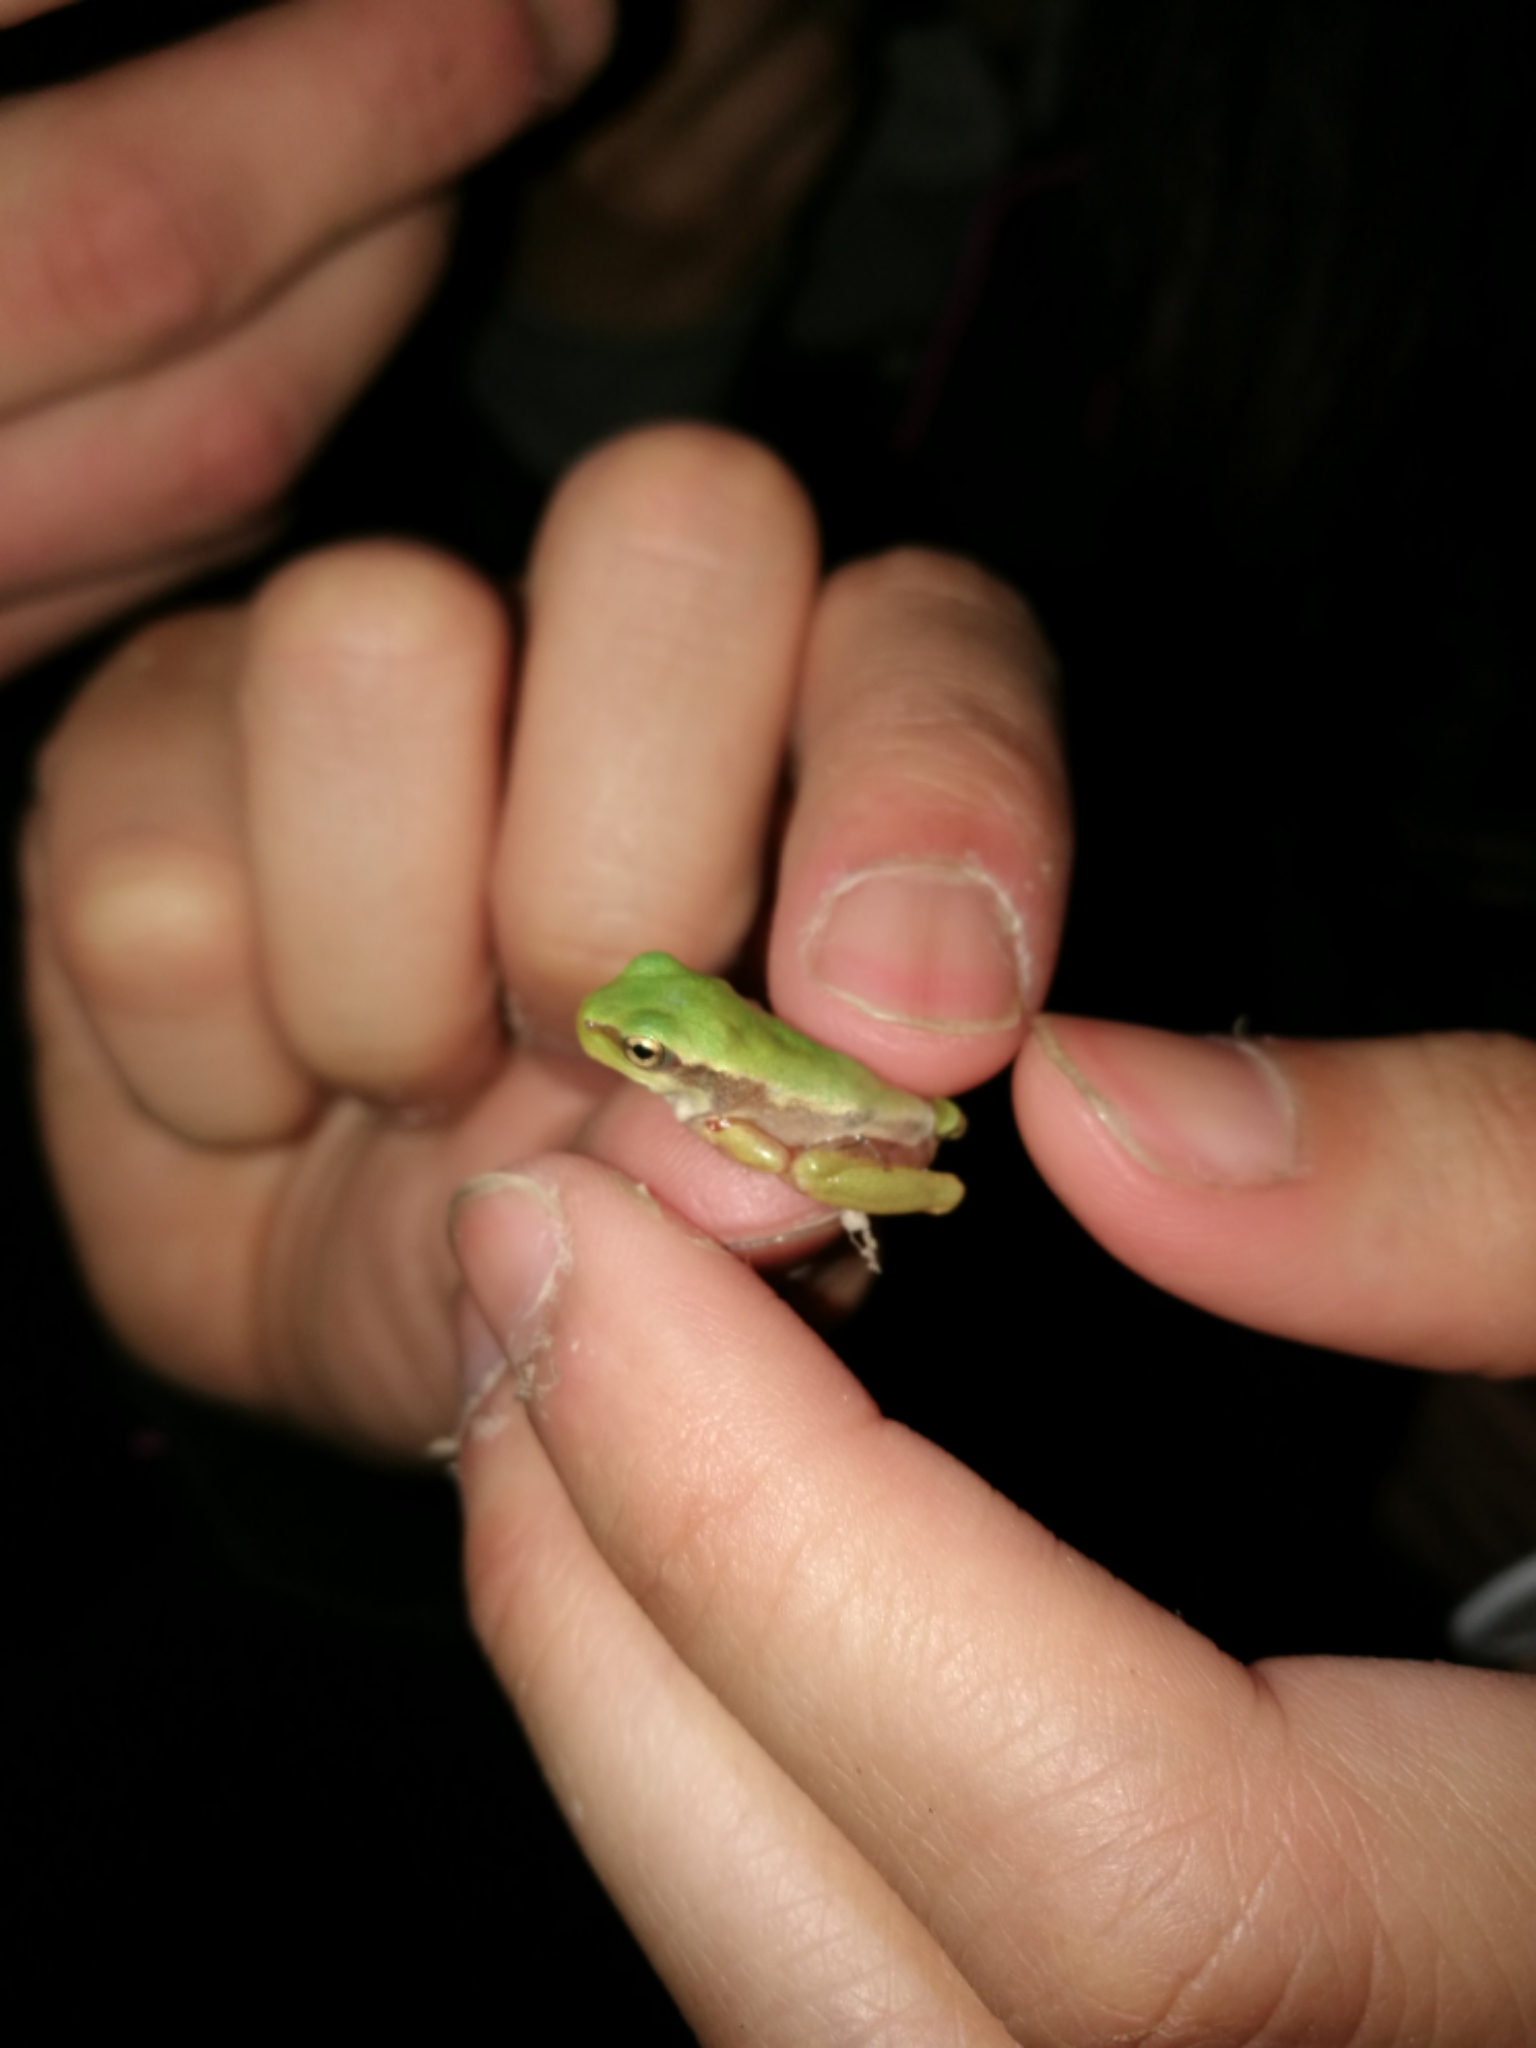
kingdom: Animalia
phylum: Chordata
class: Amphibia
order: Anura
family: Hylidae
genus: Hyla
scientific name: Hyla arborea
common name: Common tree frog
